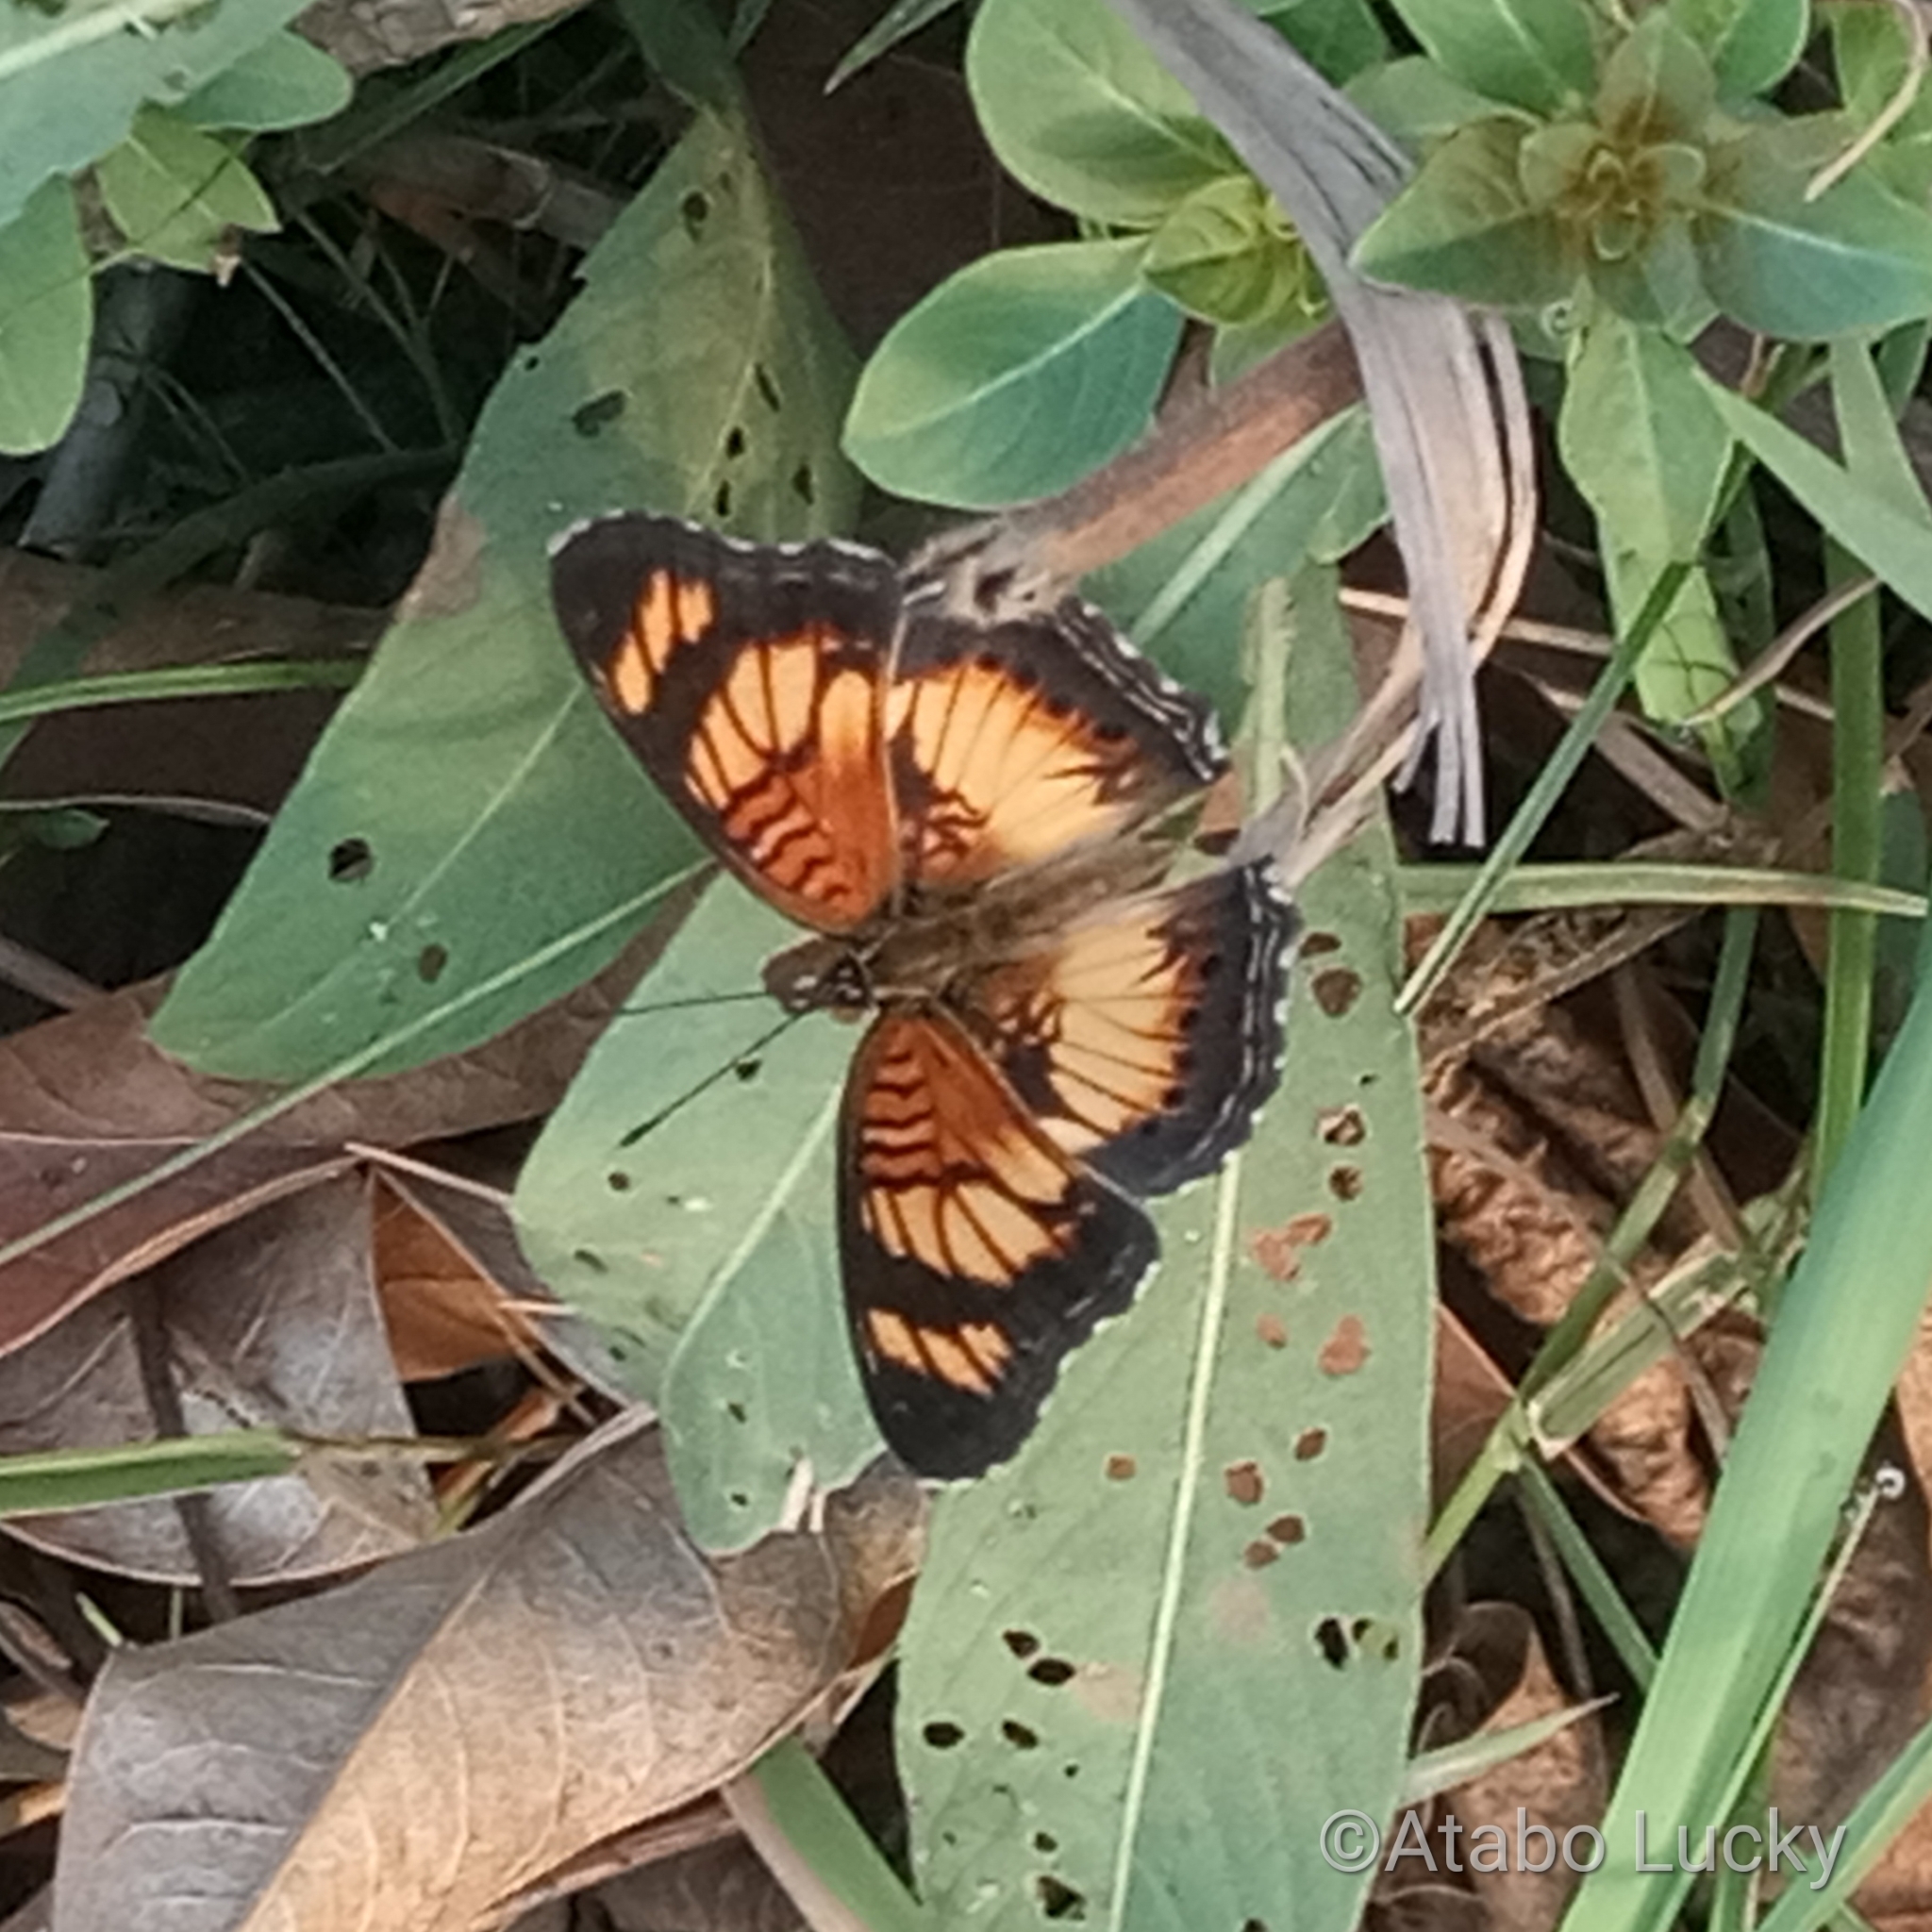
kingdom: Animalia
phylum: Arthropoda
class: Insecta
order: Lepidoptera
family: Nymphalidae
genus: Junonia
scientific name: Junonia sophia
